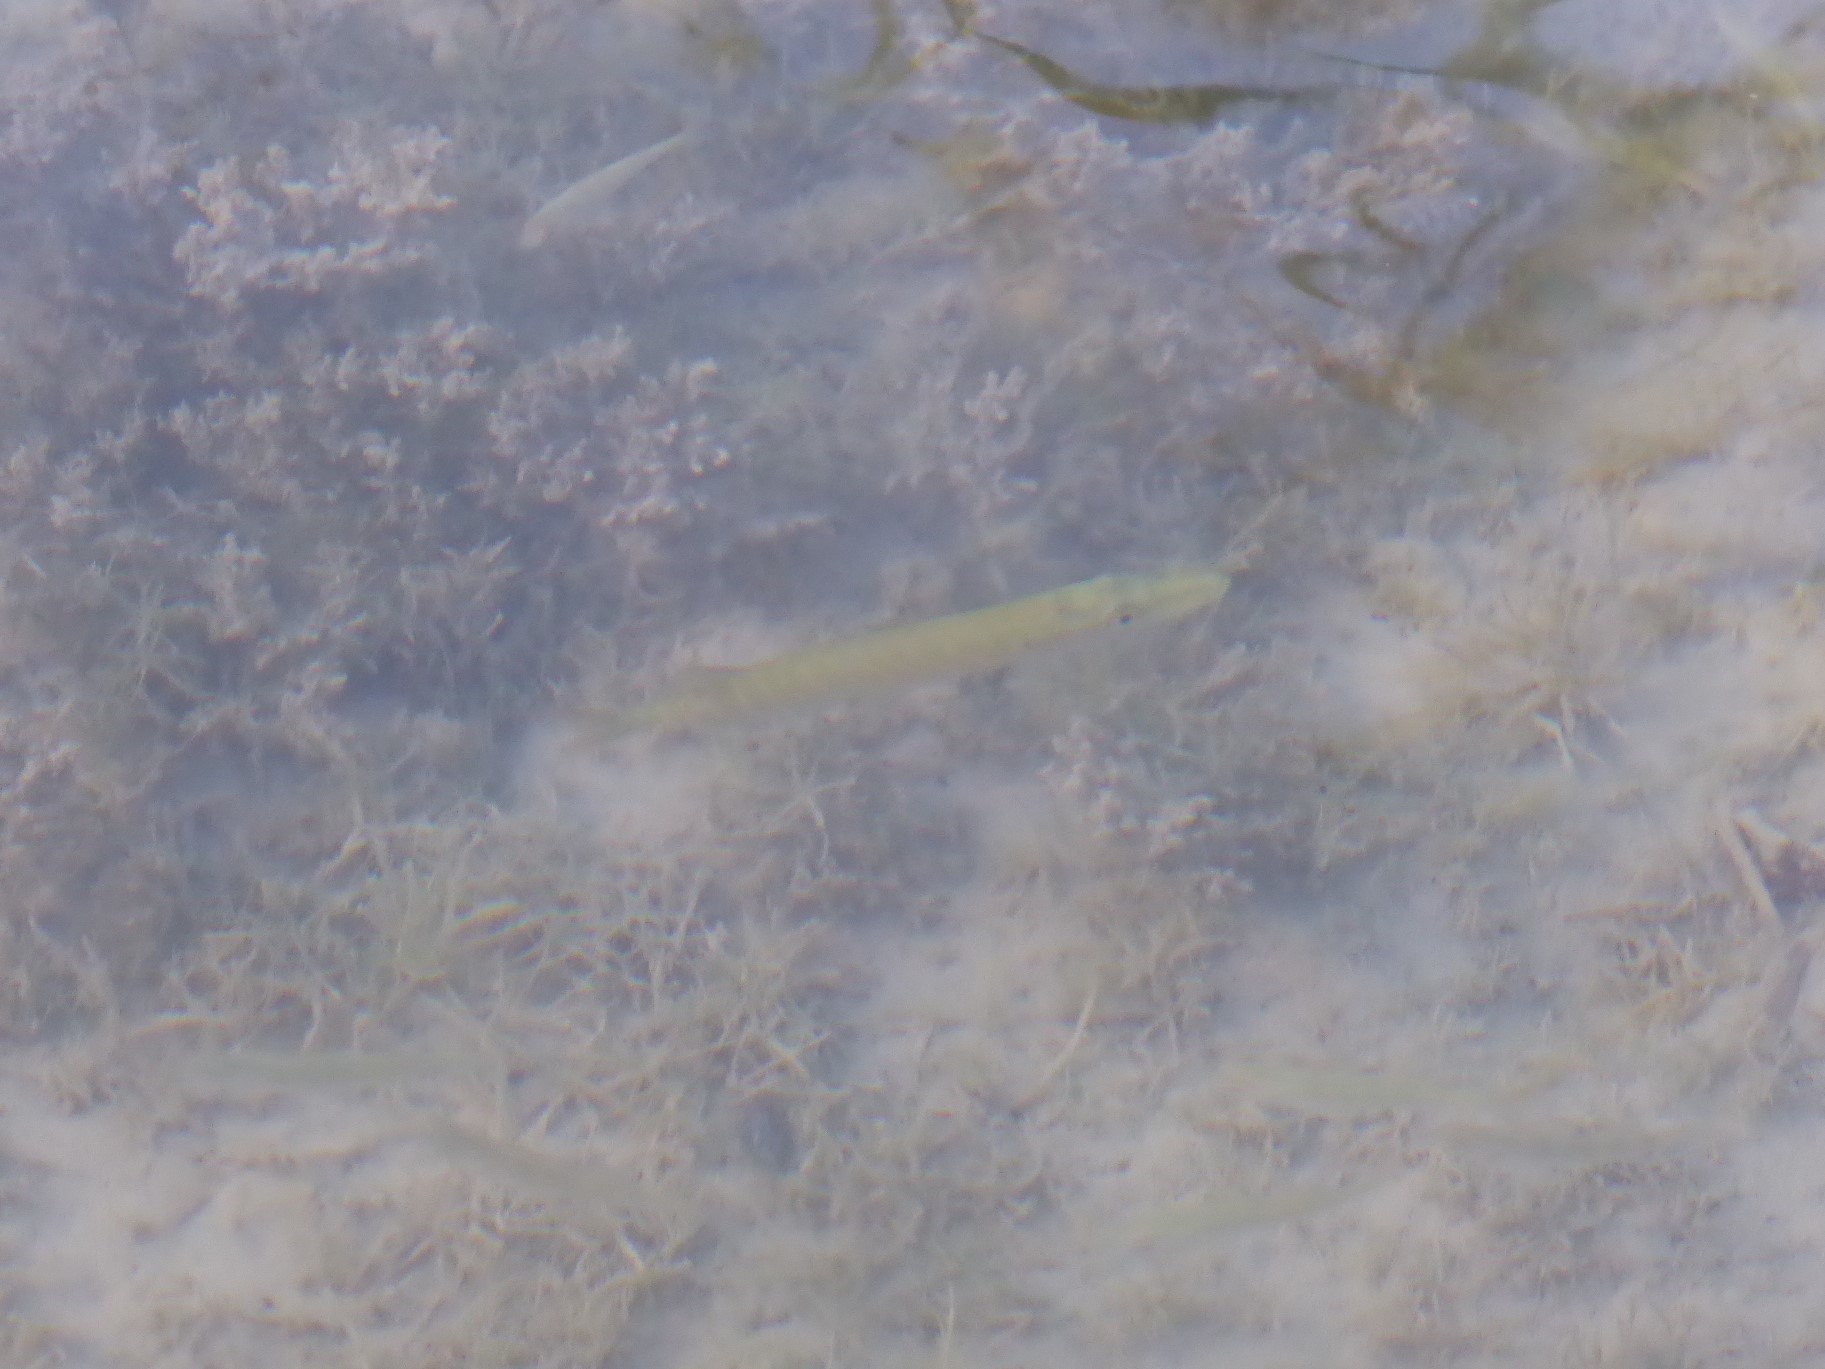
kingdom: Animalia
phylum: Chordata
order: Esociformes
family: Esocidae
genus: Esox
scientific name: Esox lucius
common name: Northern pike
